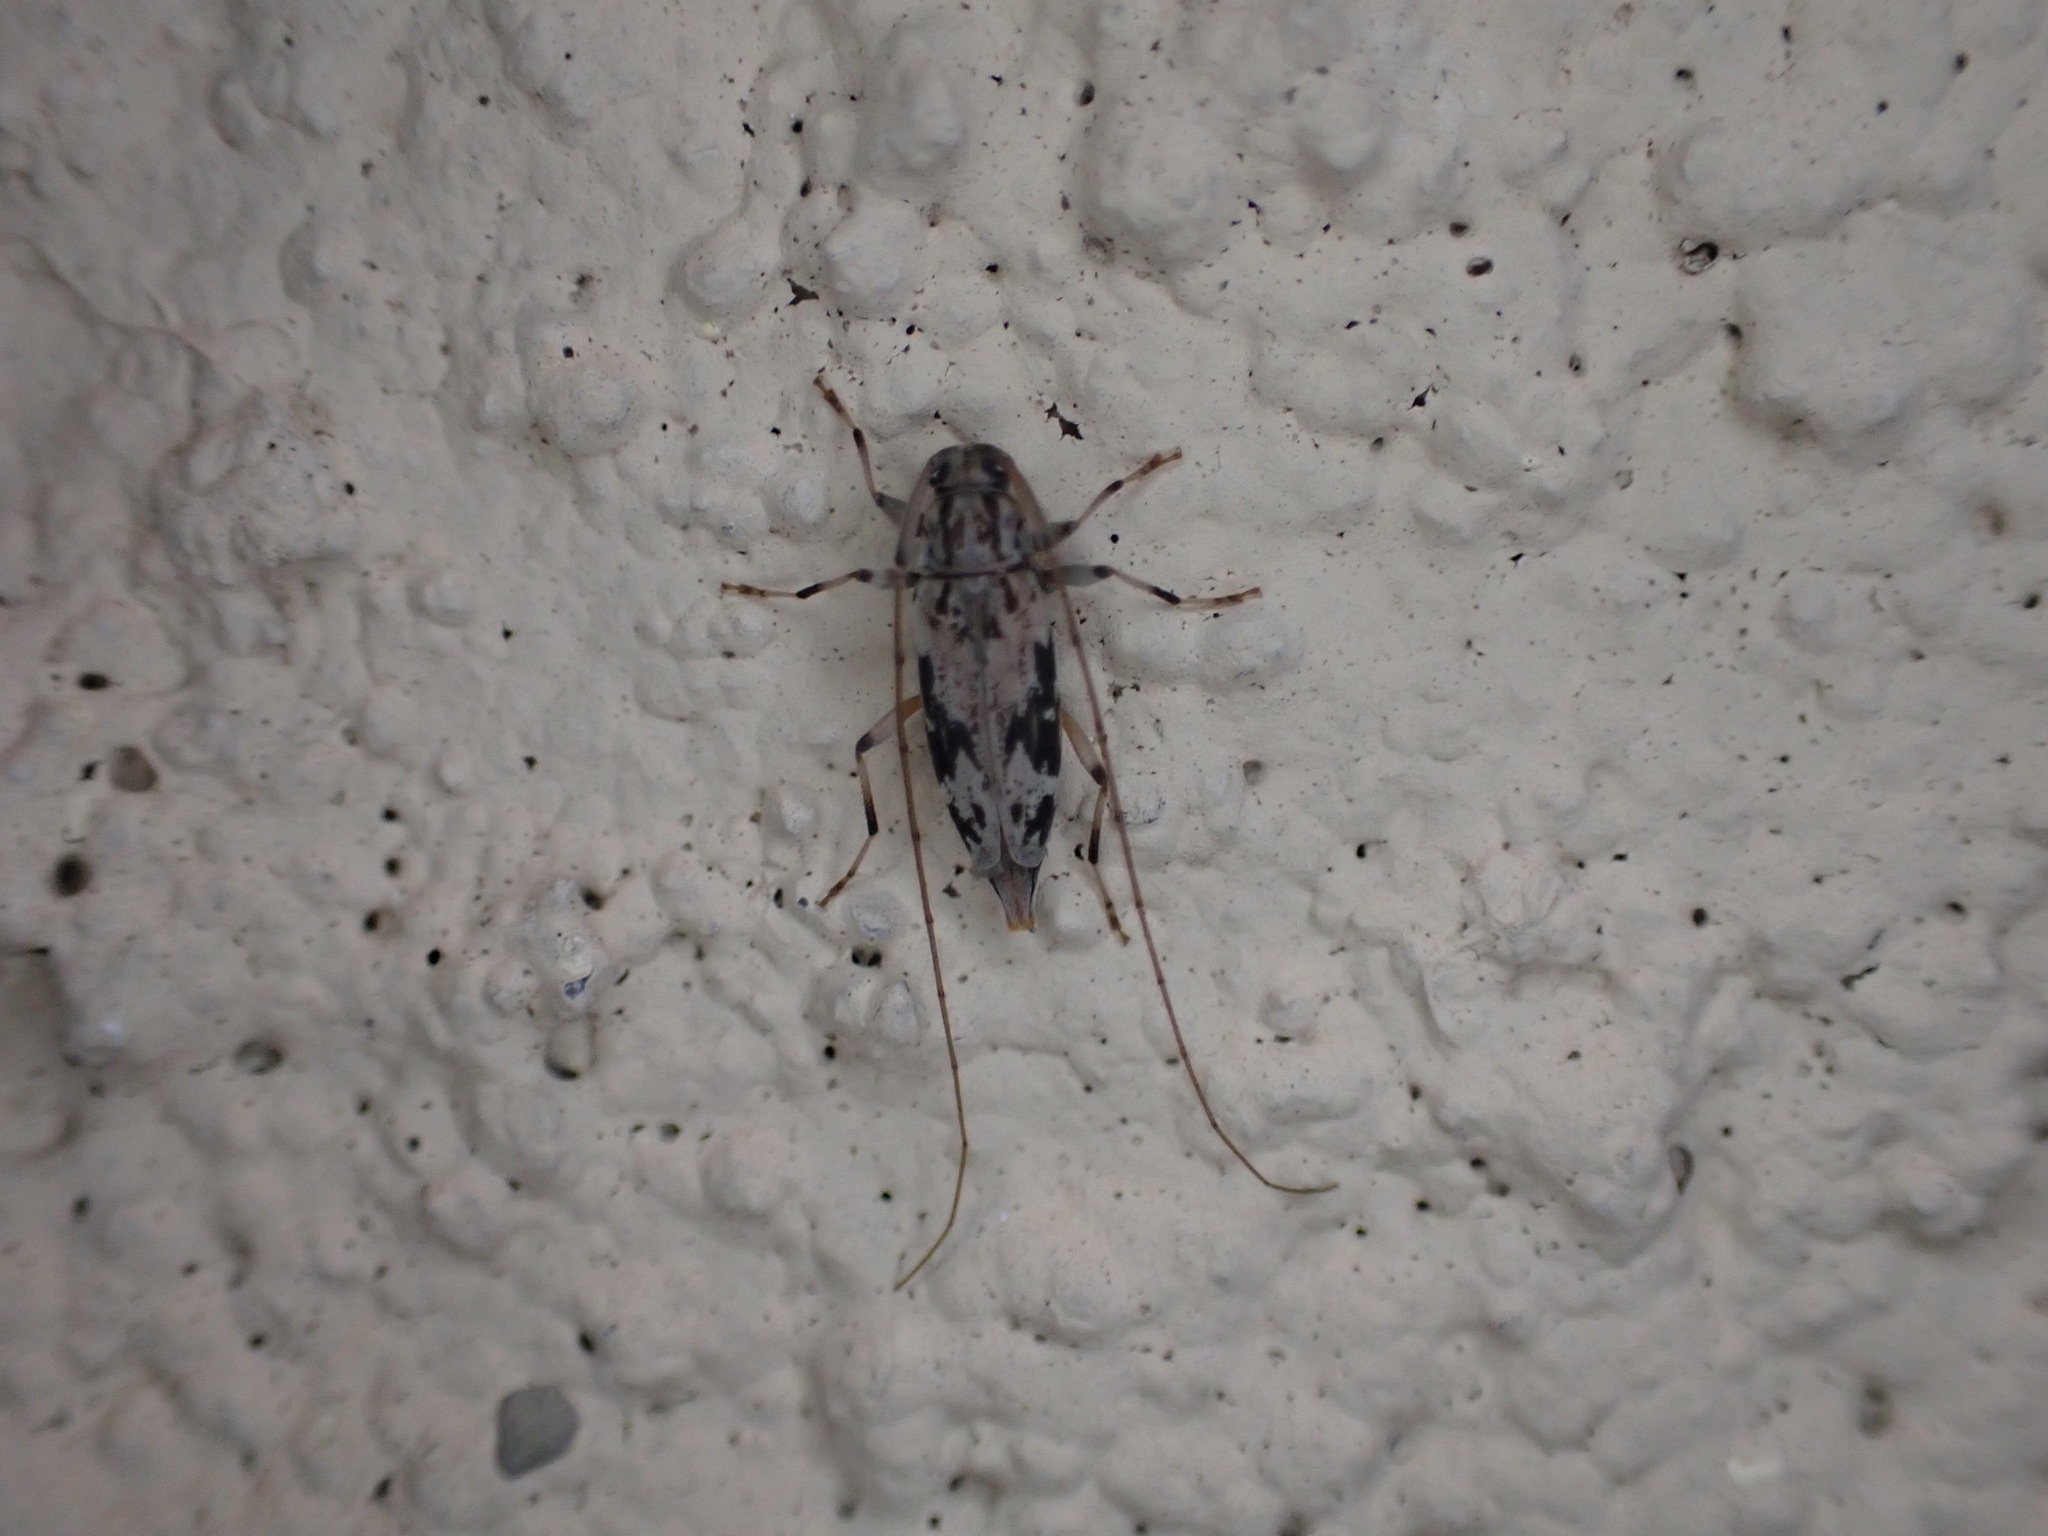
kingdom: Animalia
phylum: Arthropoda
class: Insecta
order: Coleoptera
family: Cerambycidae
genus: Lepturges
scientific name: Lepturges angulatus
